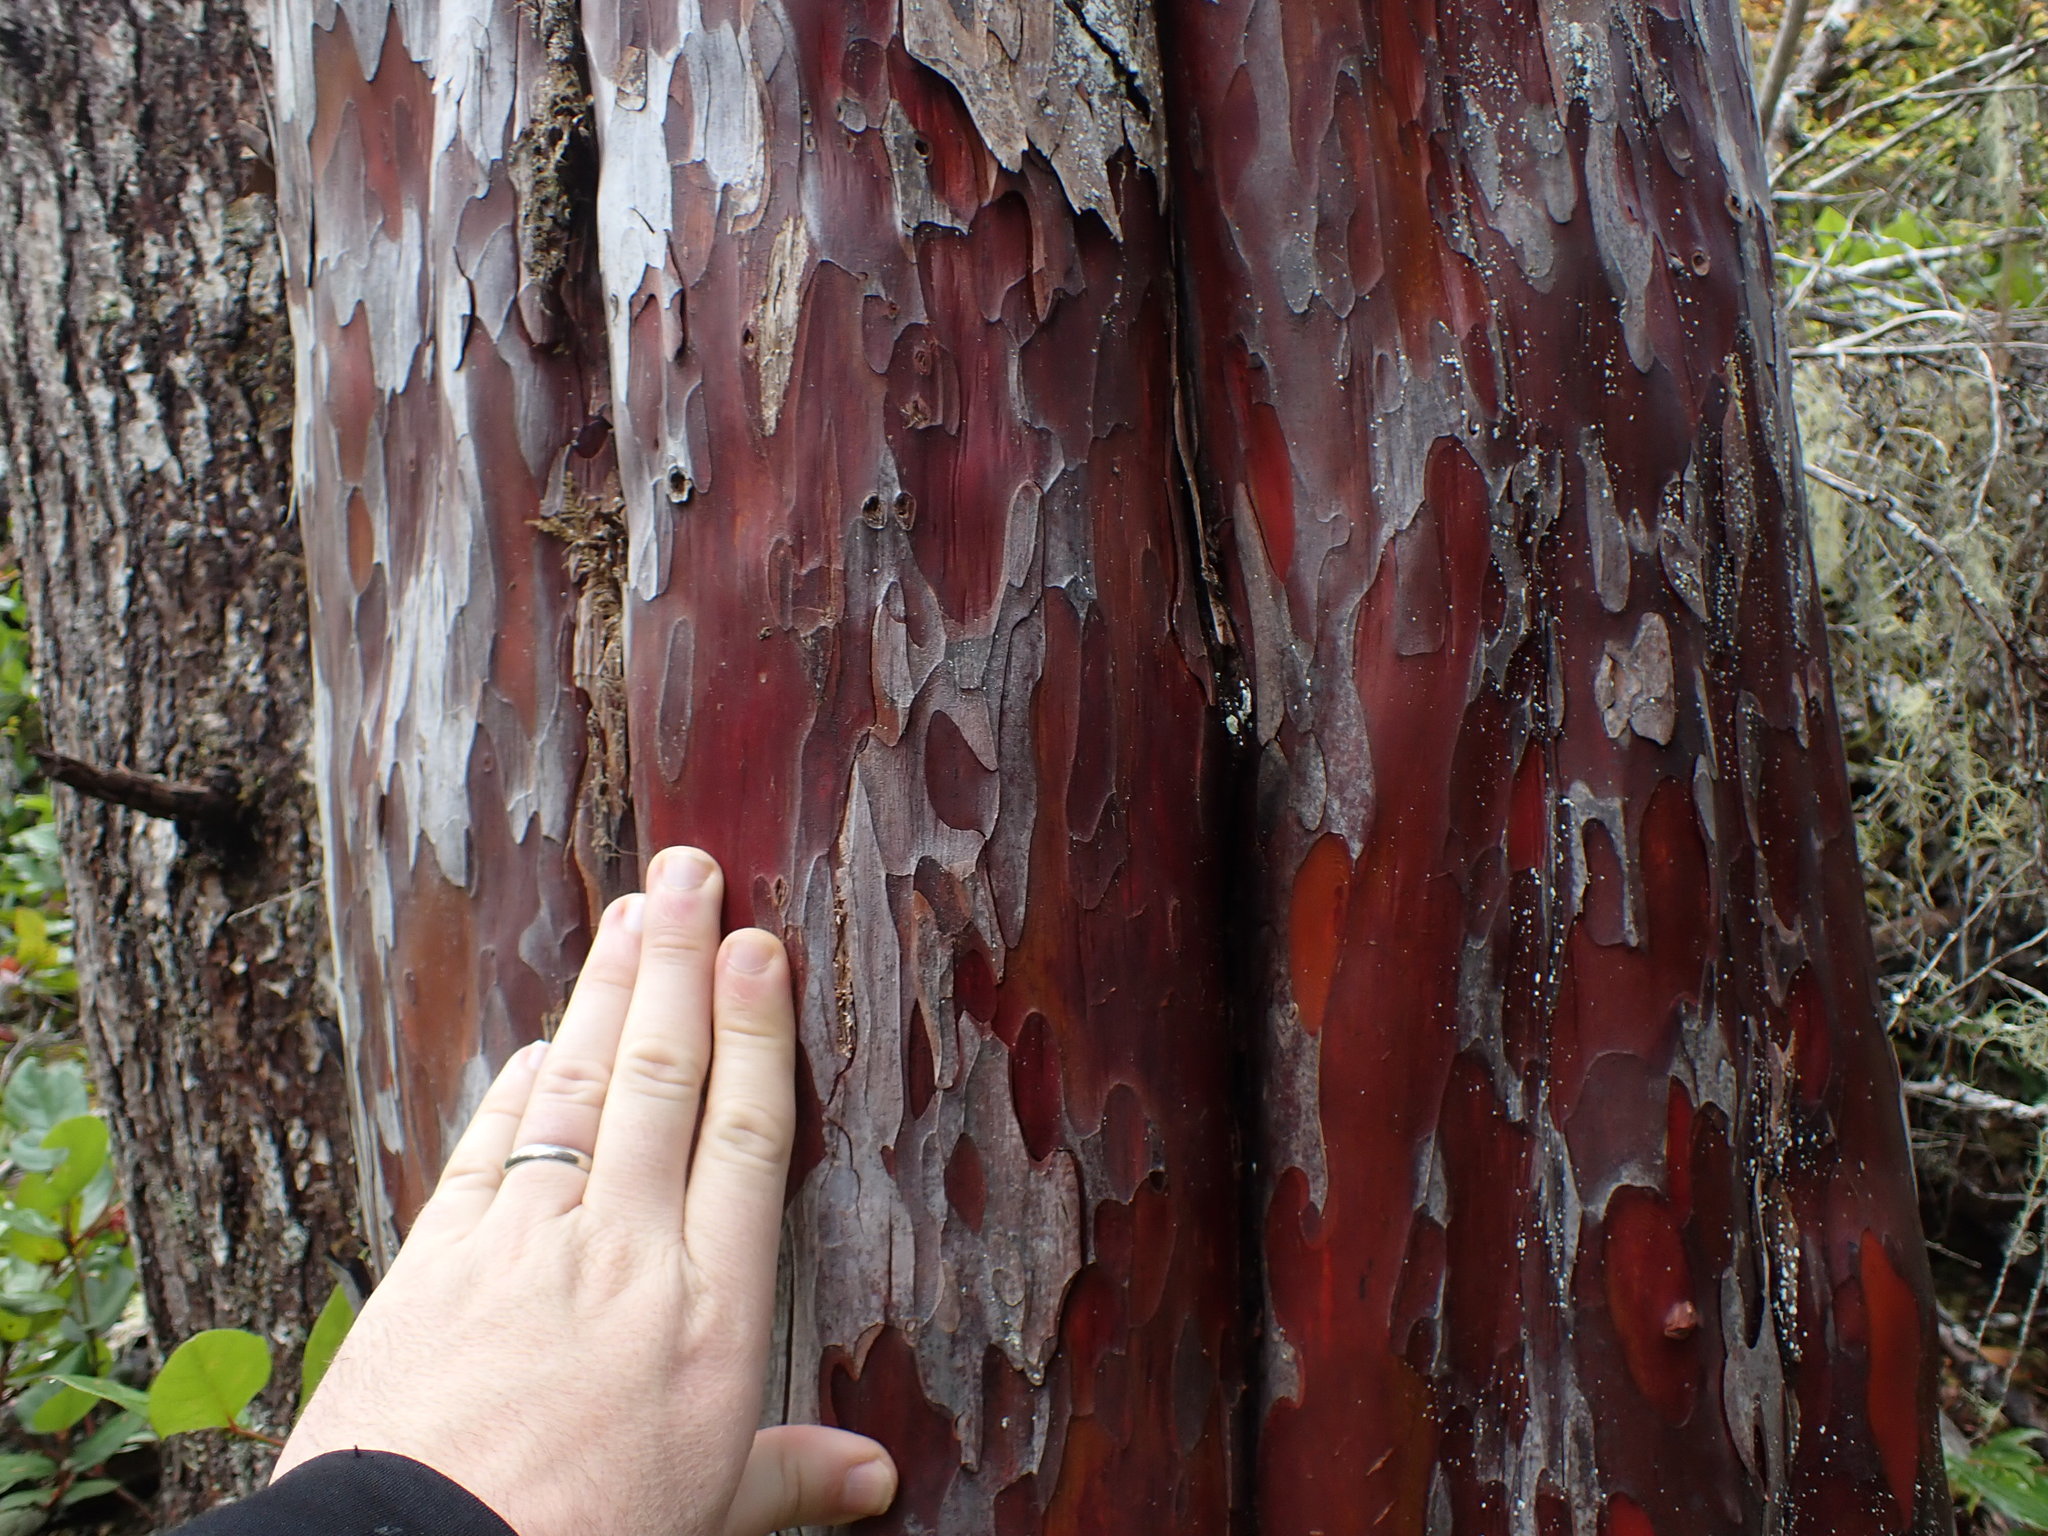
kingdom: Plantae
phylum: Tracheophyta
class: Pinopsida
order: Pinales
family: Taxaceae
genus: Taxus
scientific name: Taxus brevifolia
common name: Pacific yew
